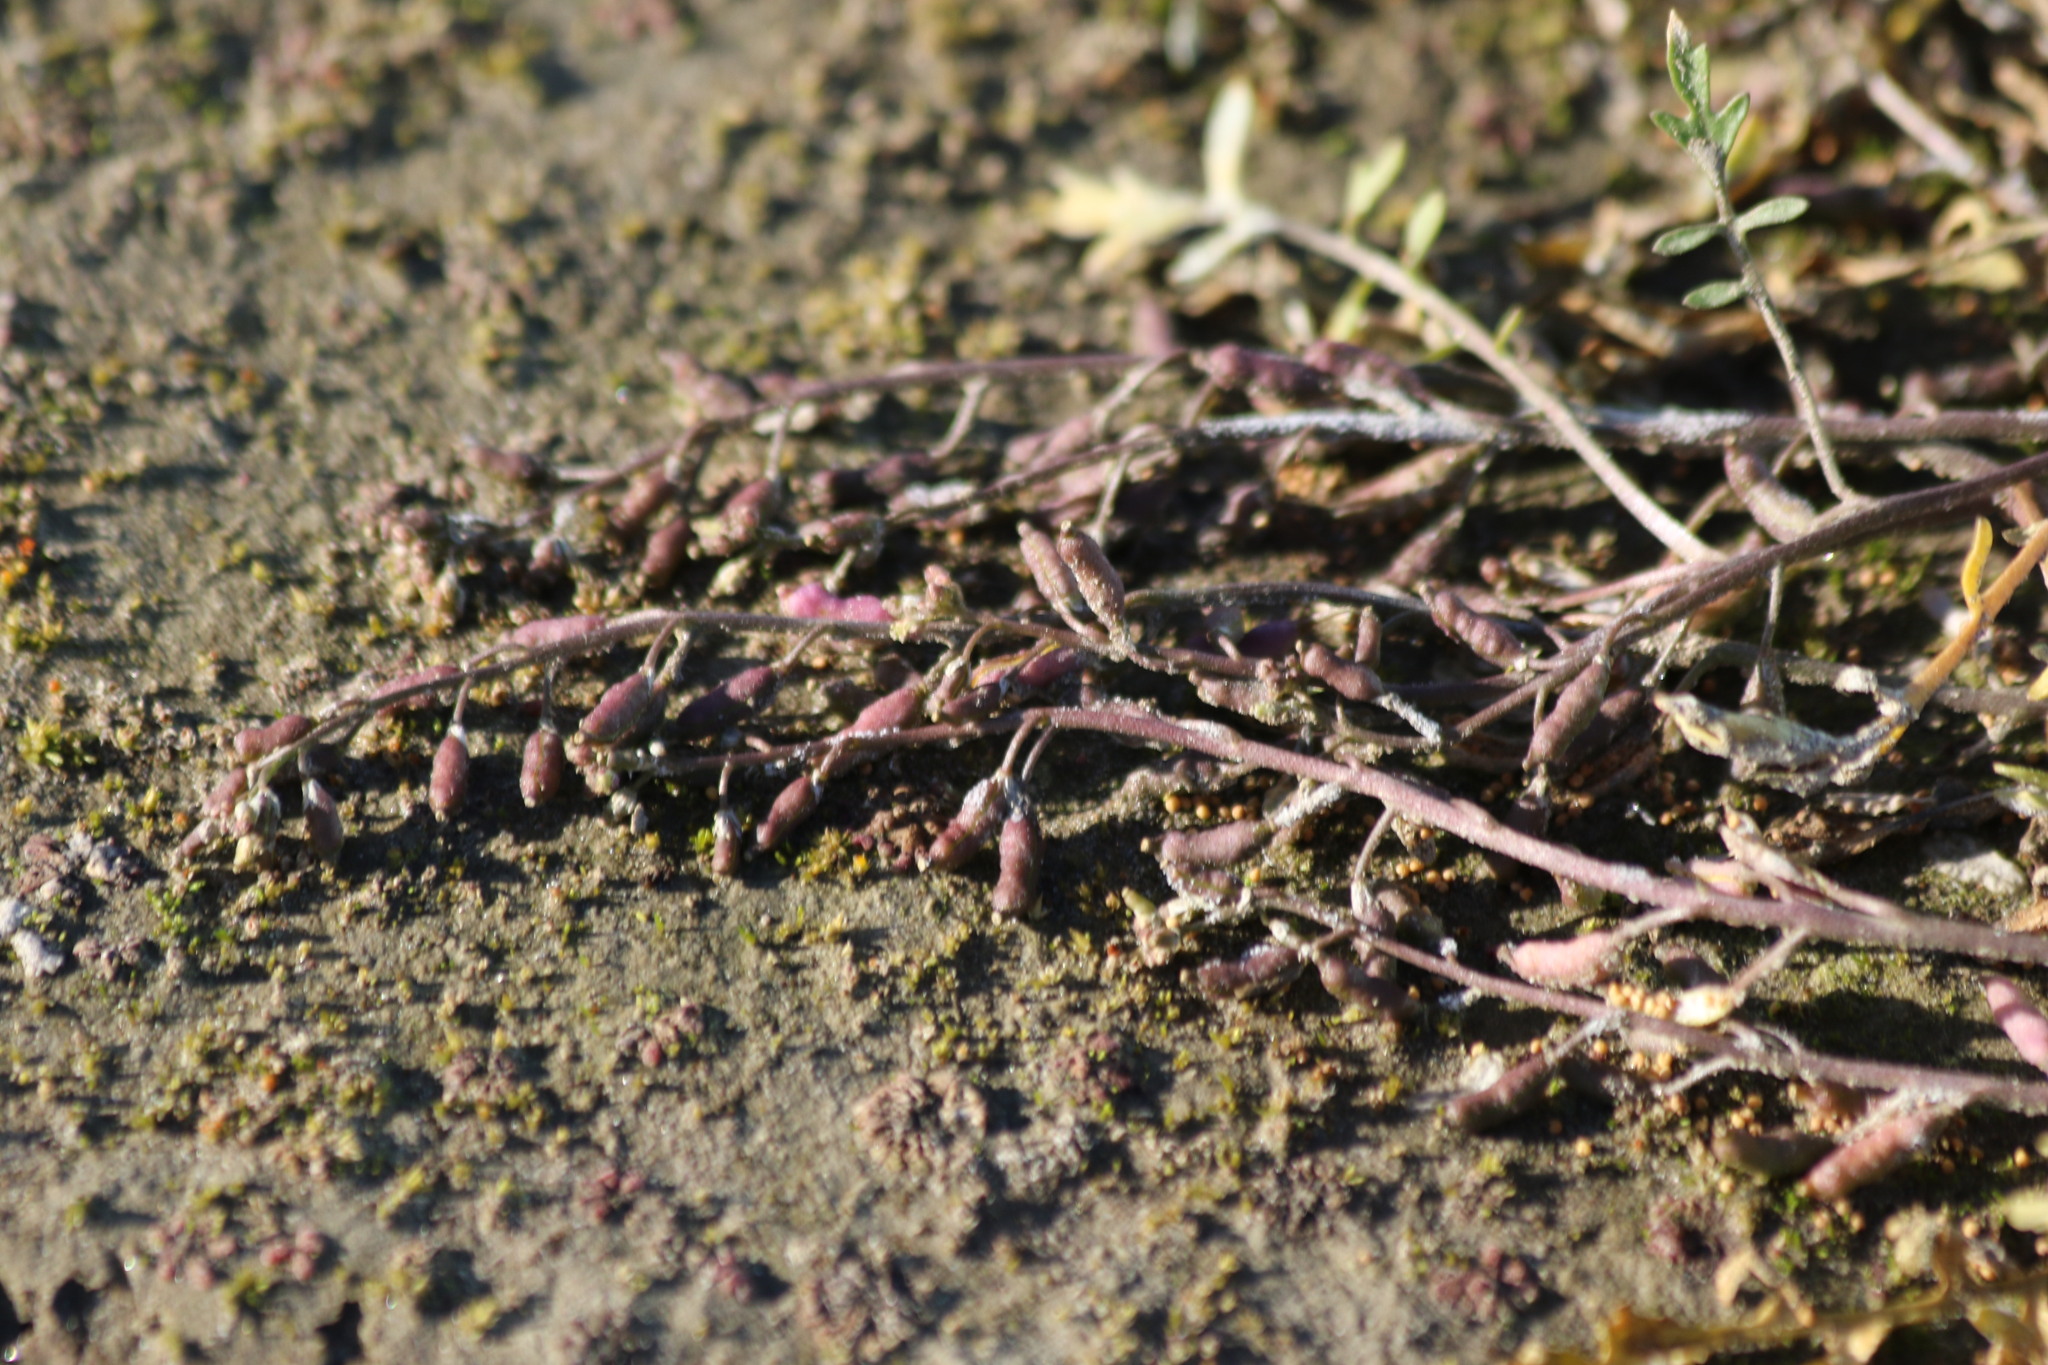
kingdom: Plantae
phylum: Tracheophyta
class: Magnoliopsida
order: Brassicales
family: Brassicaceae
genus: Rorippa
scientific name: Rorippa palustris
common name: Marsh yellow-cress
